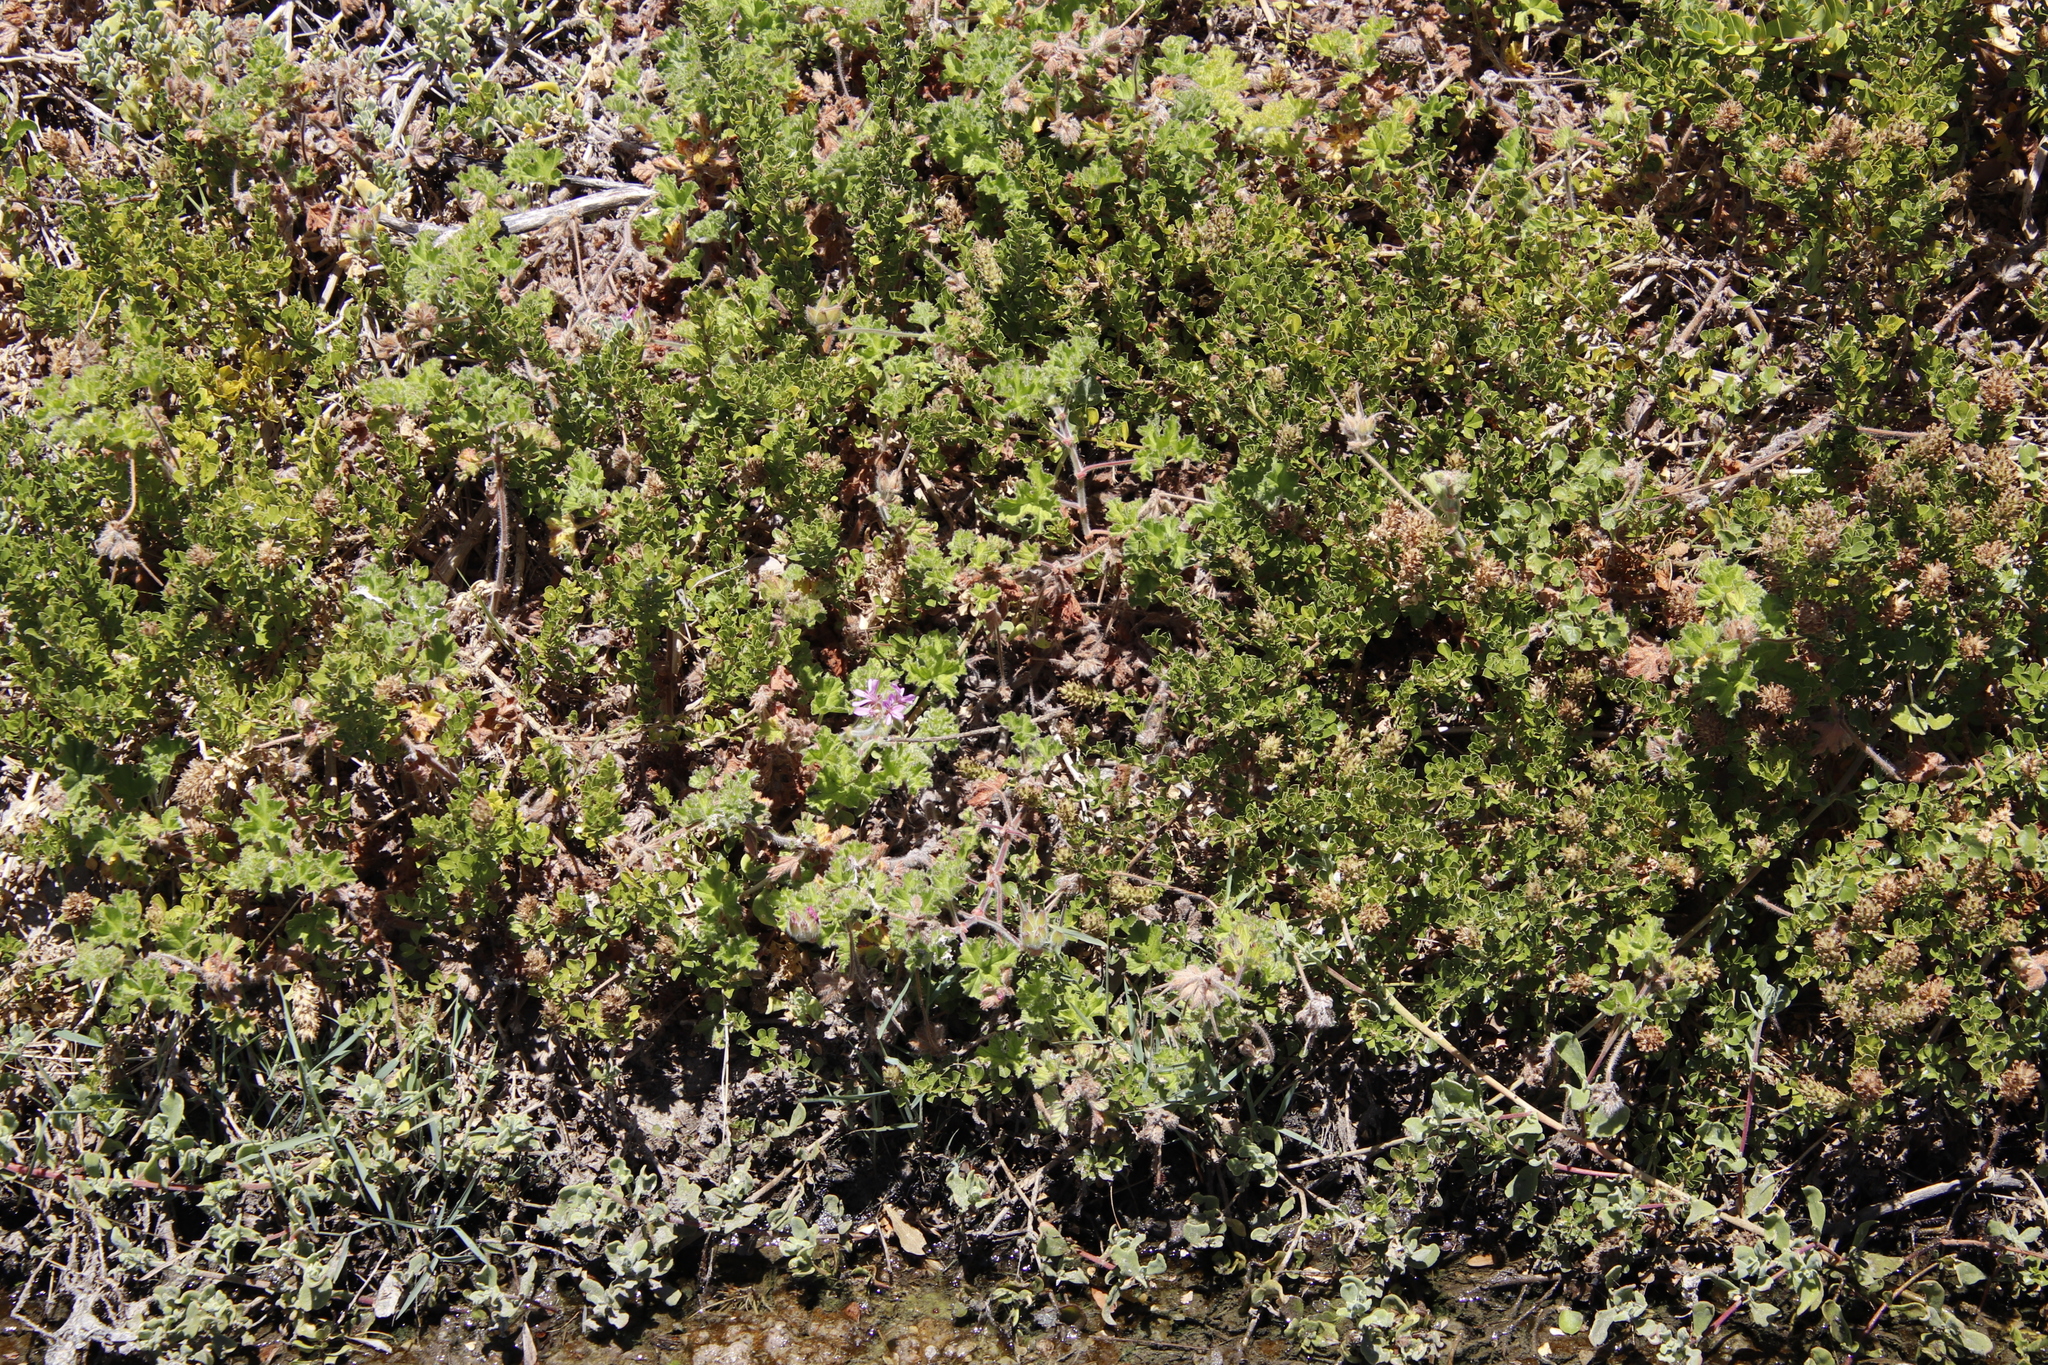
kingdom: Plantae
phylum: Tracheophyta
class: Magnoliopsida
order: Geraniales
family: Geraniaceae
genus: Pelargonium
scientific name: Pelargonium capitatum
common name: Rose scented geranium
